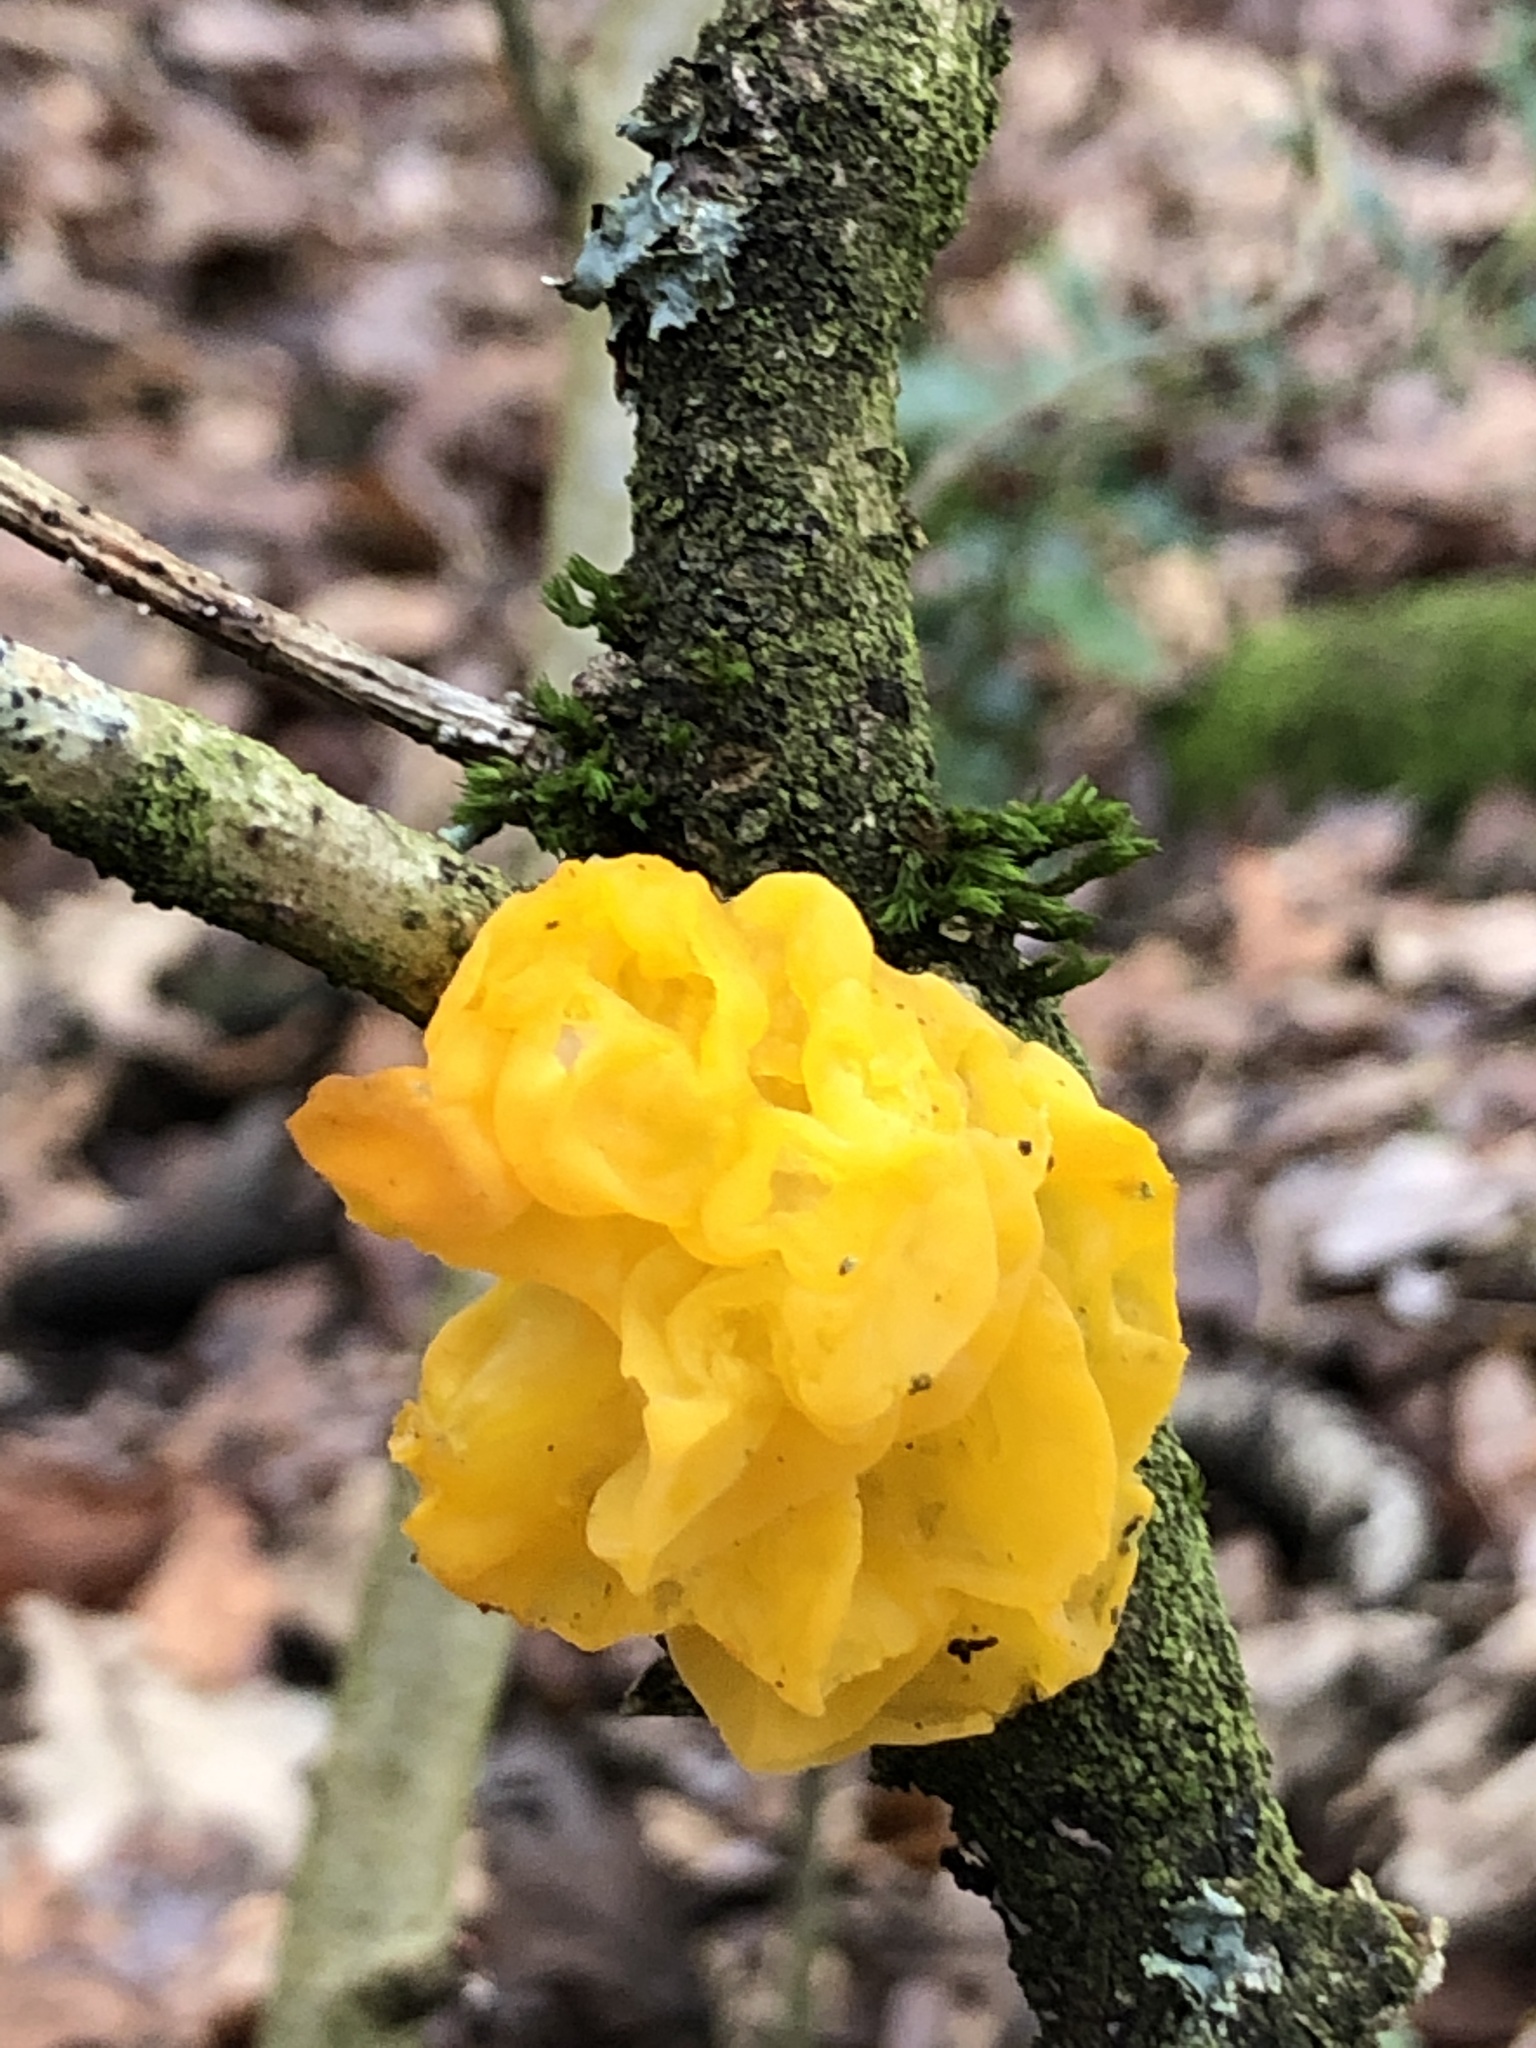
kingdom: Fungi
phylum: Basidiomycota
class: Tremellomycetes
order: Tremellales
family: Tremellaceae
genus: Tremella
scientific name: Tremella mesenterica
